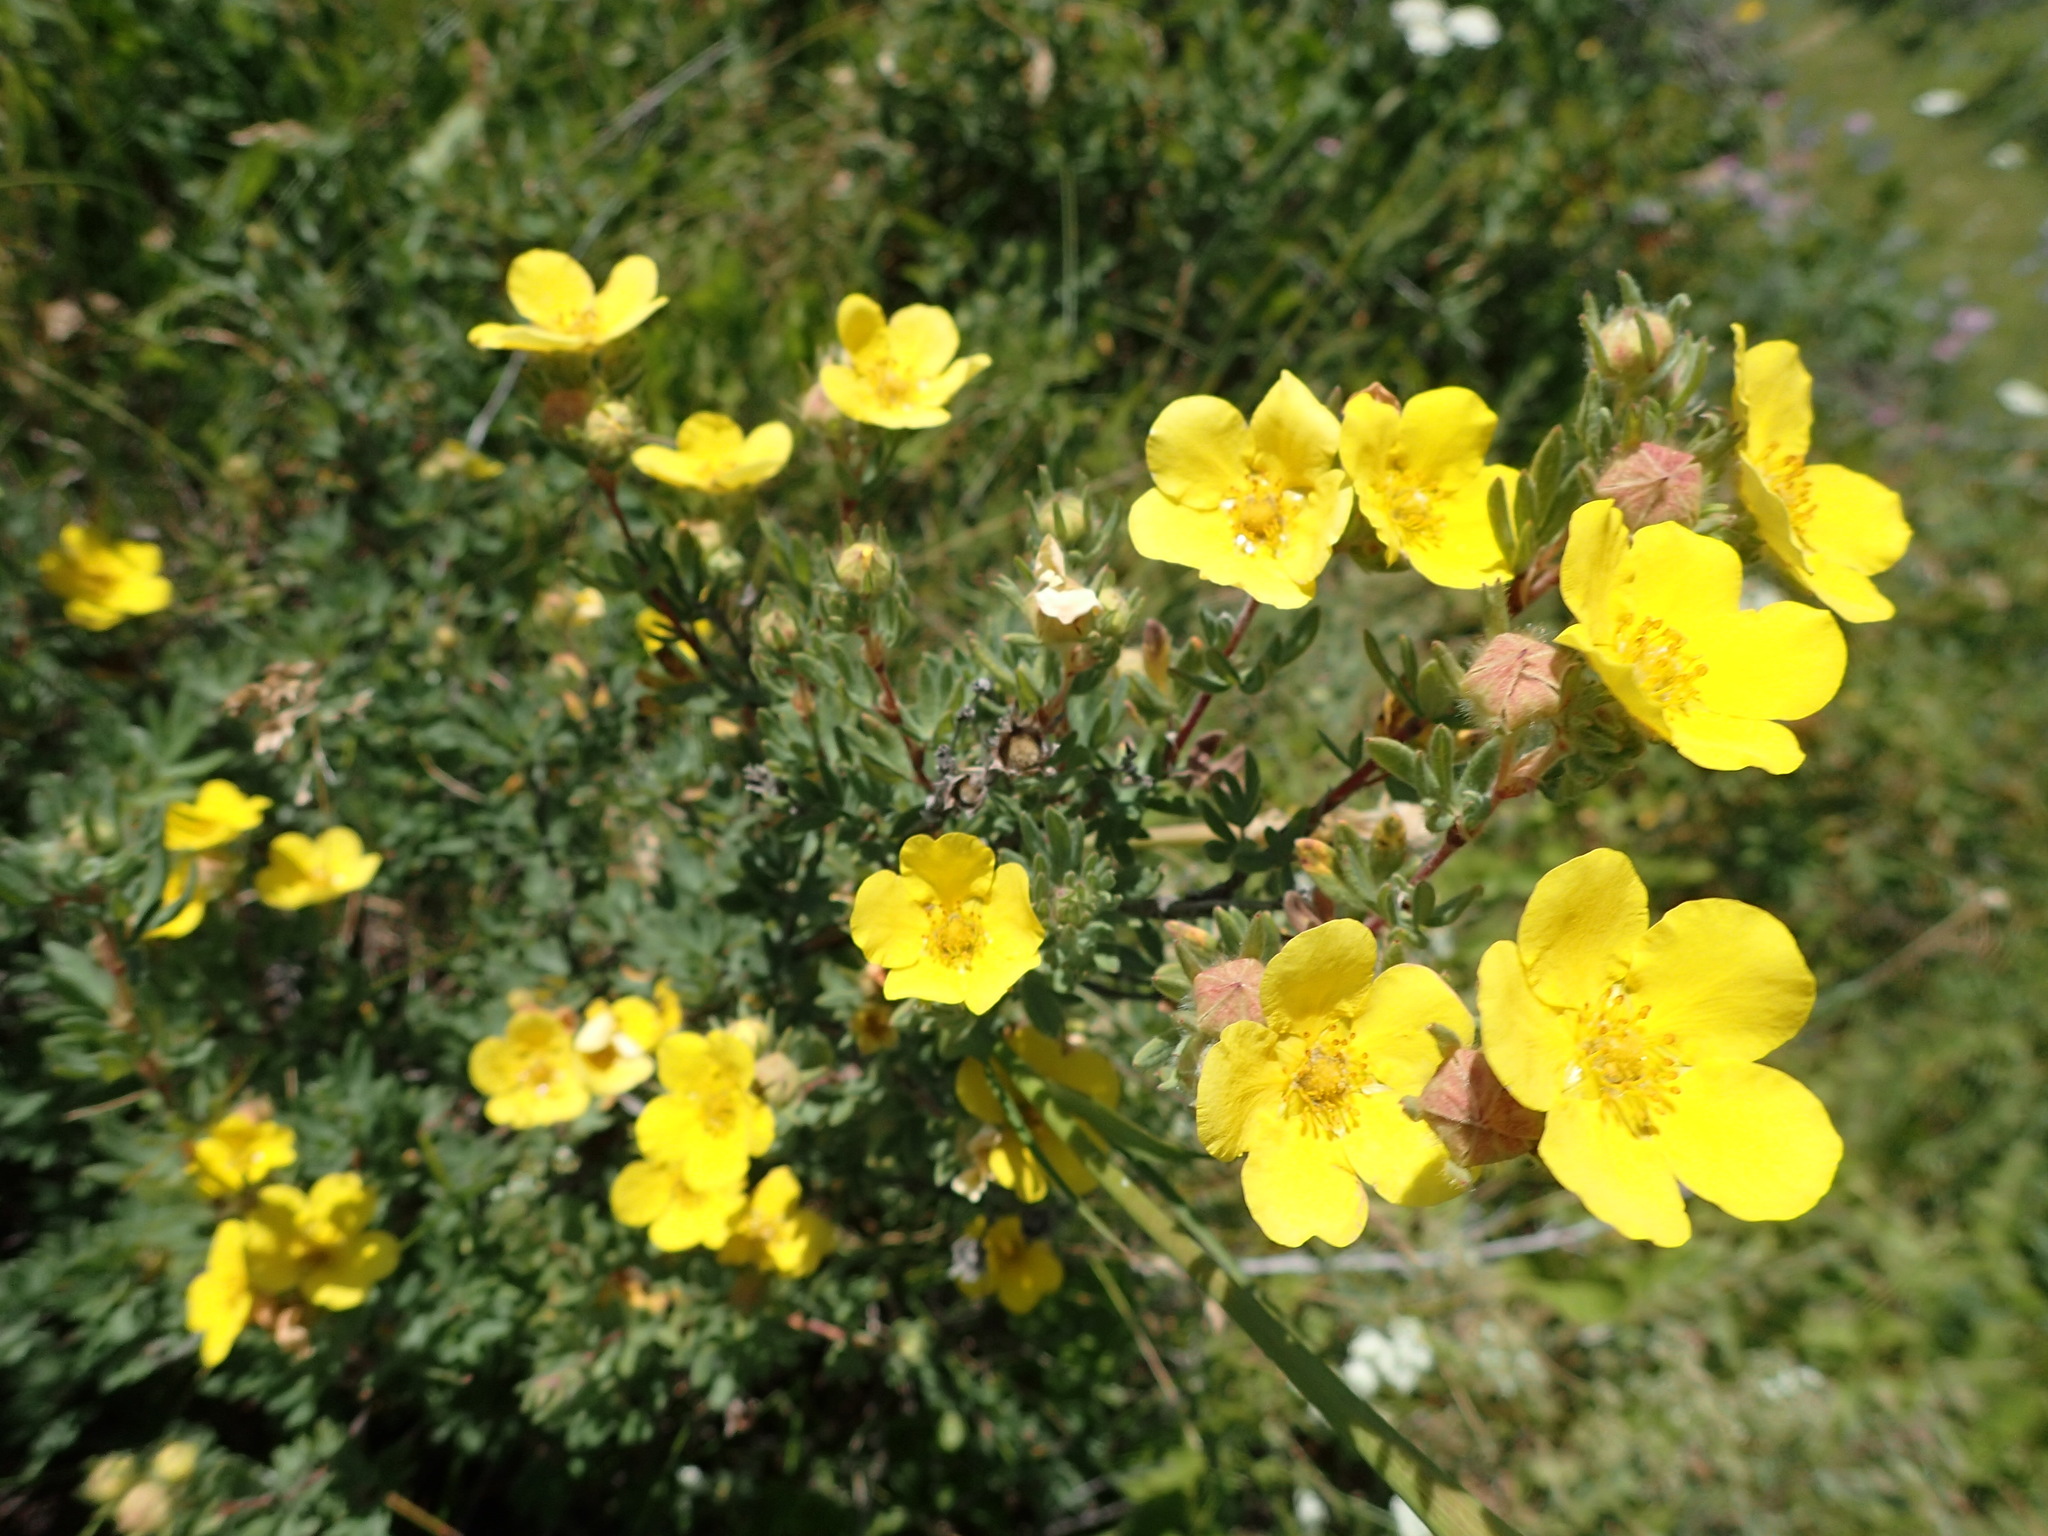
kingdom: Plantae
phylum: Tracheophyta
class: Magnoliopsida
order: Rosales
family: Rosaceae
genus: Dasiphora
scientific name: Dasiphora fruticosa
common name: Shrubby cinquefoil
